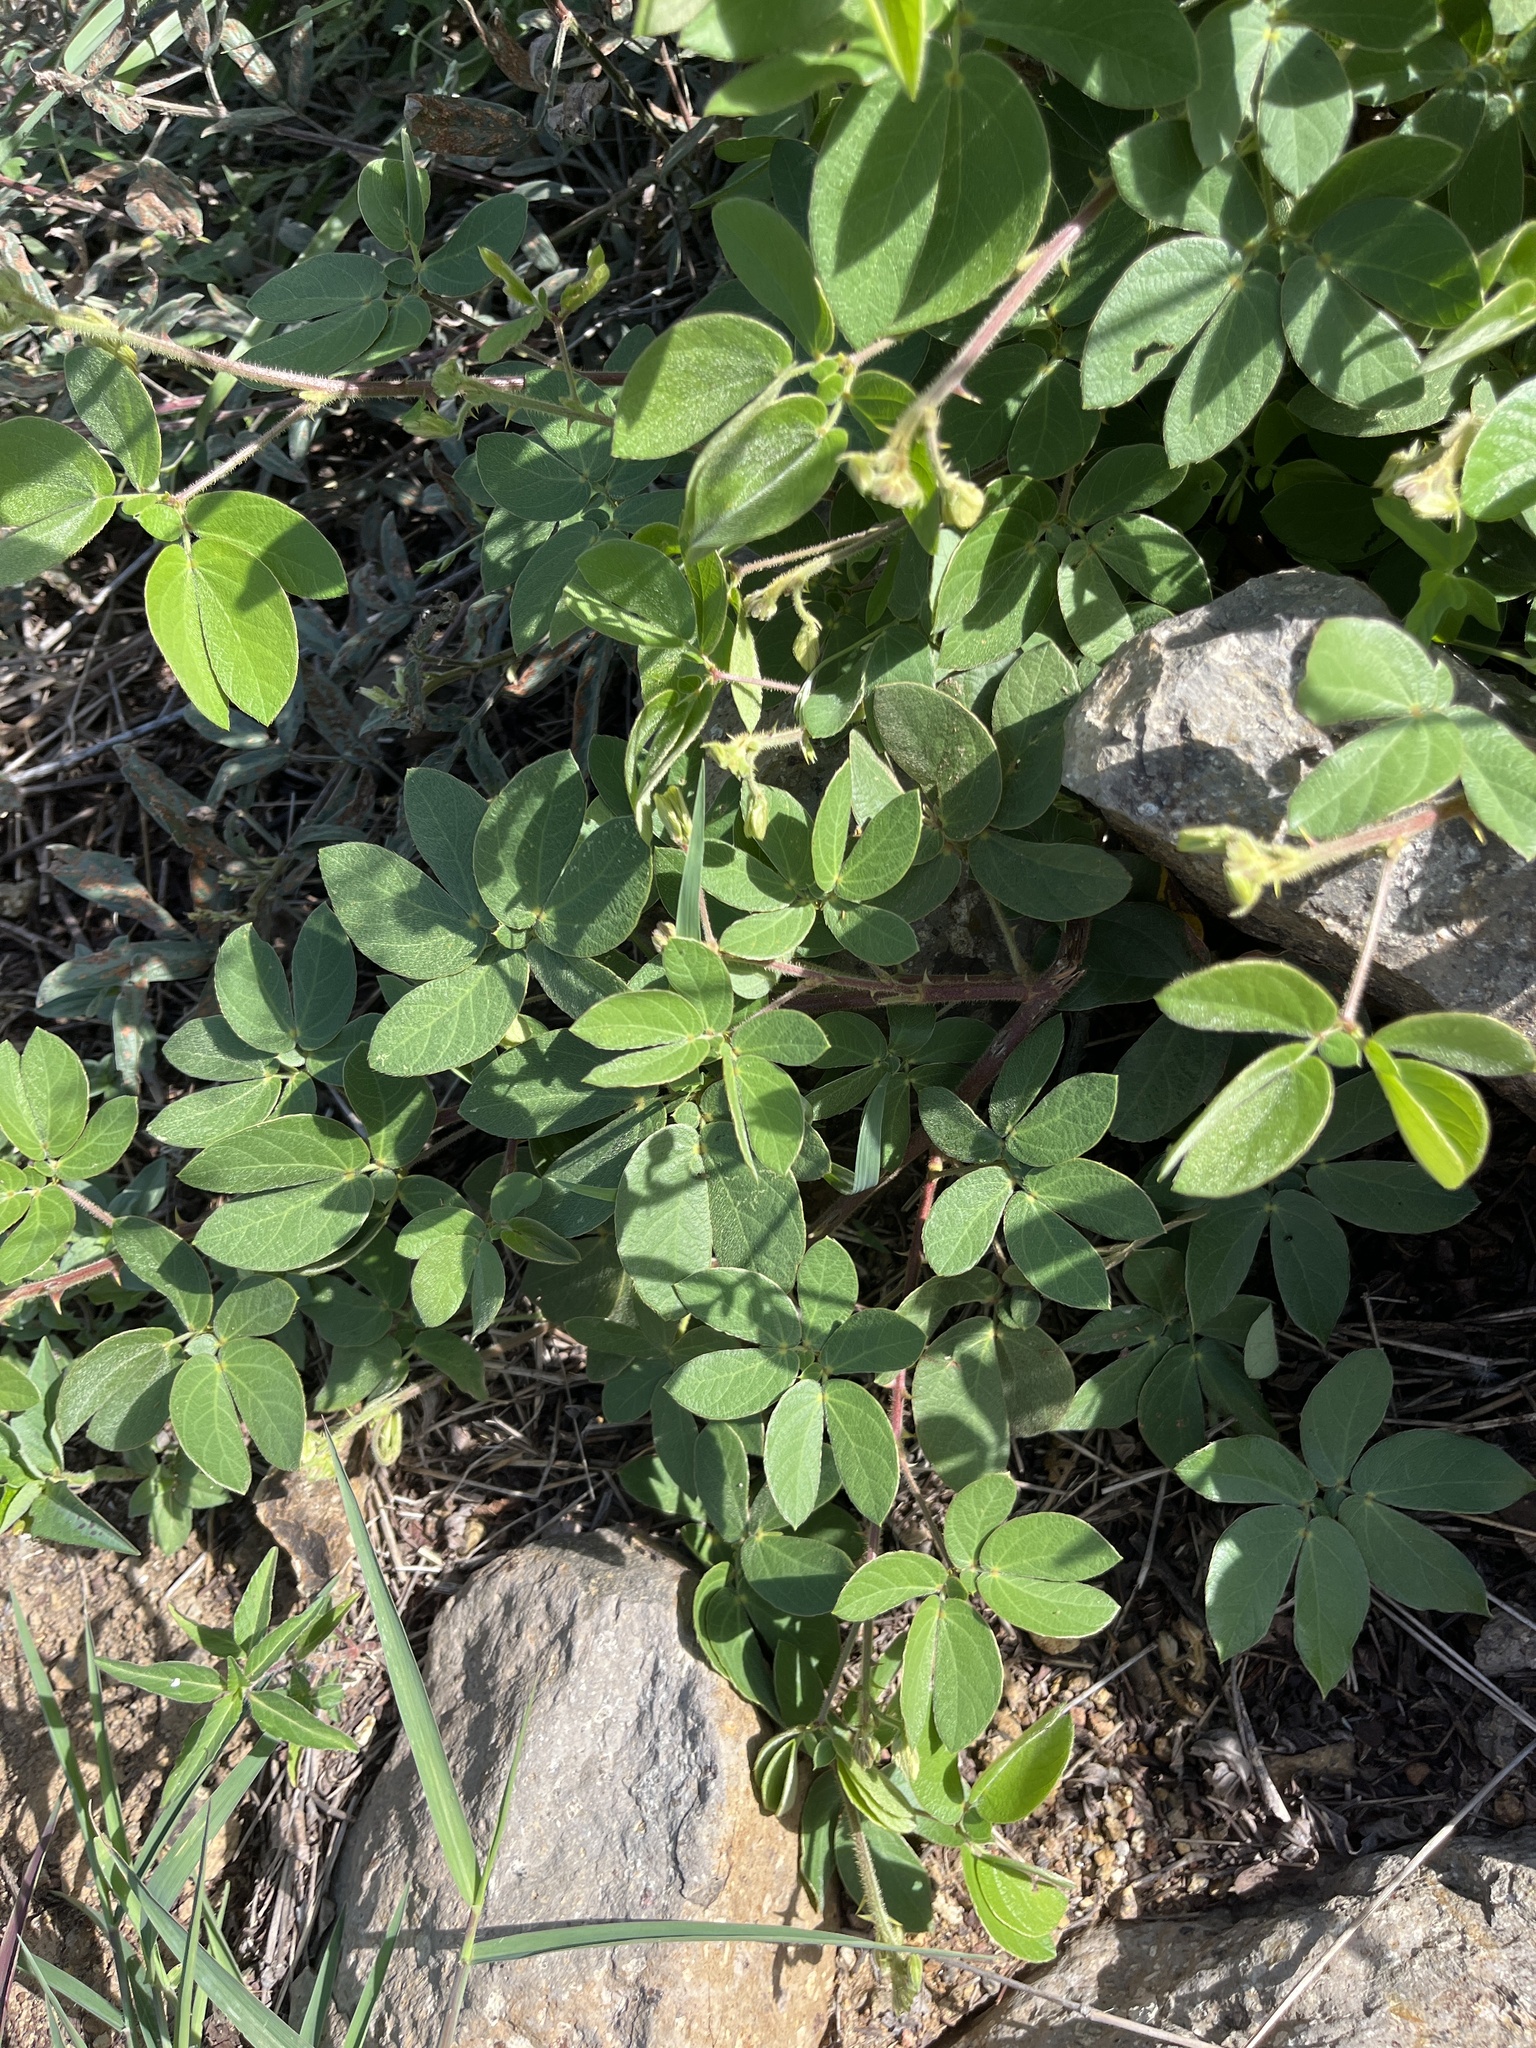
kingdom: Plantae
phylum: Tracheophyta
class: Magnoliopsida
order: Fabales
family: Fabaceae
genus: Mimosa
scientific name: Mimosa albida
